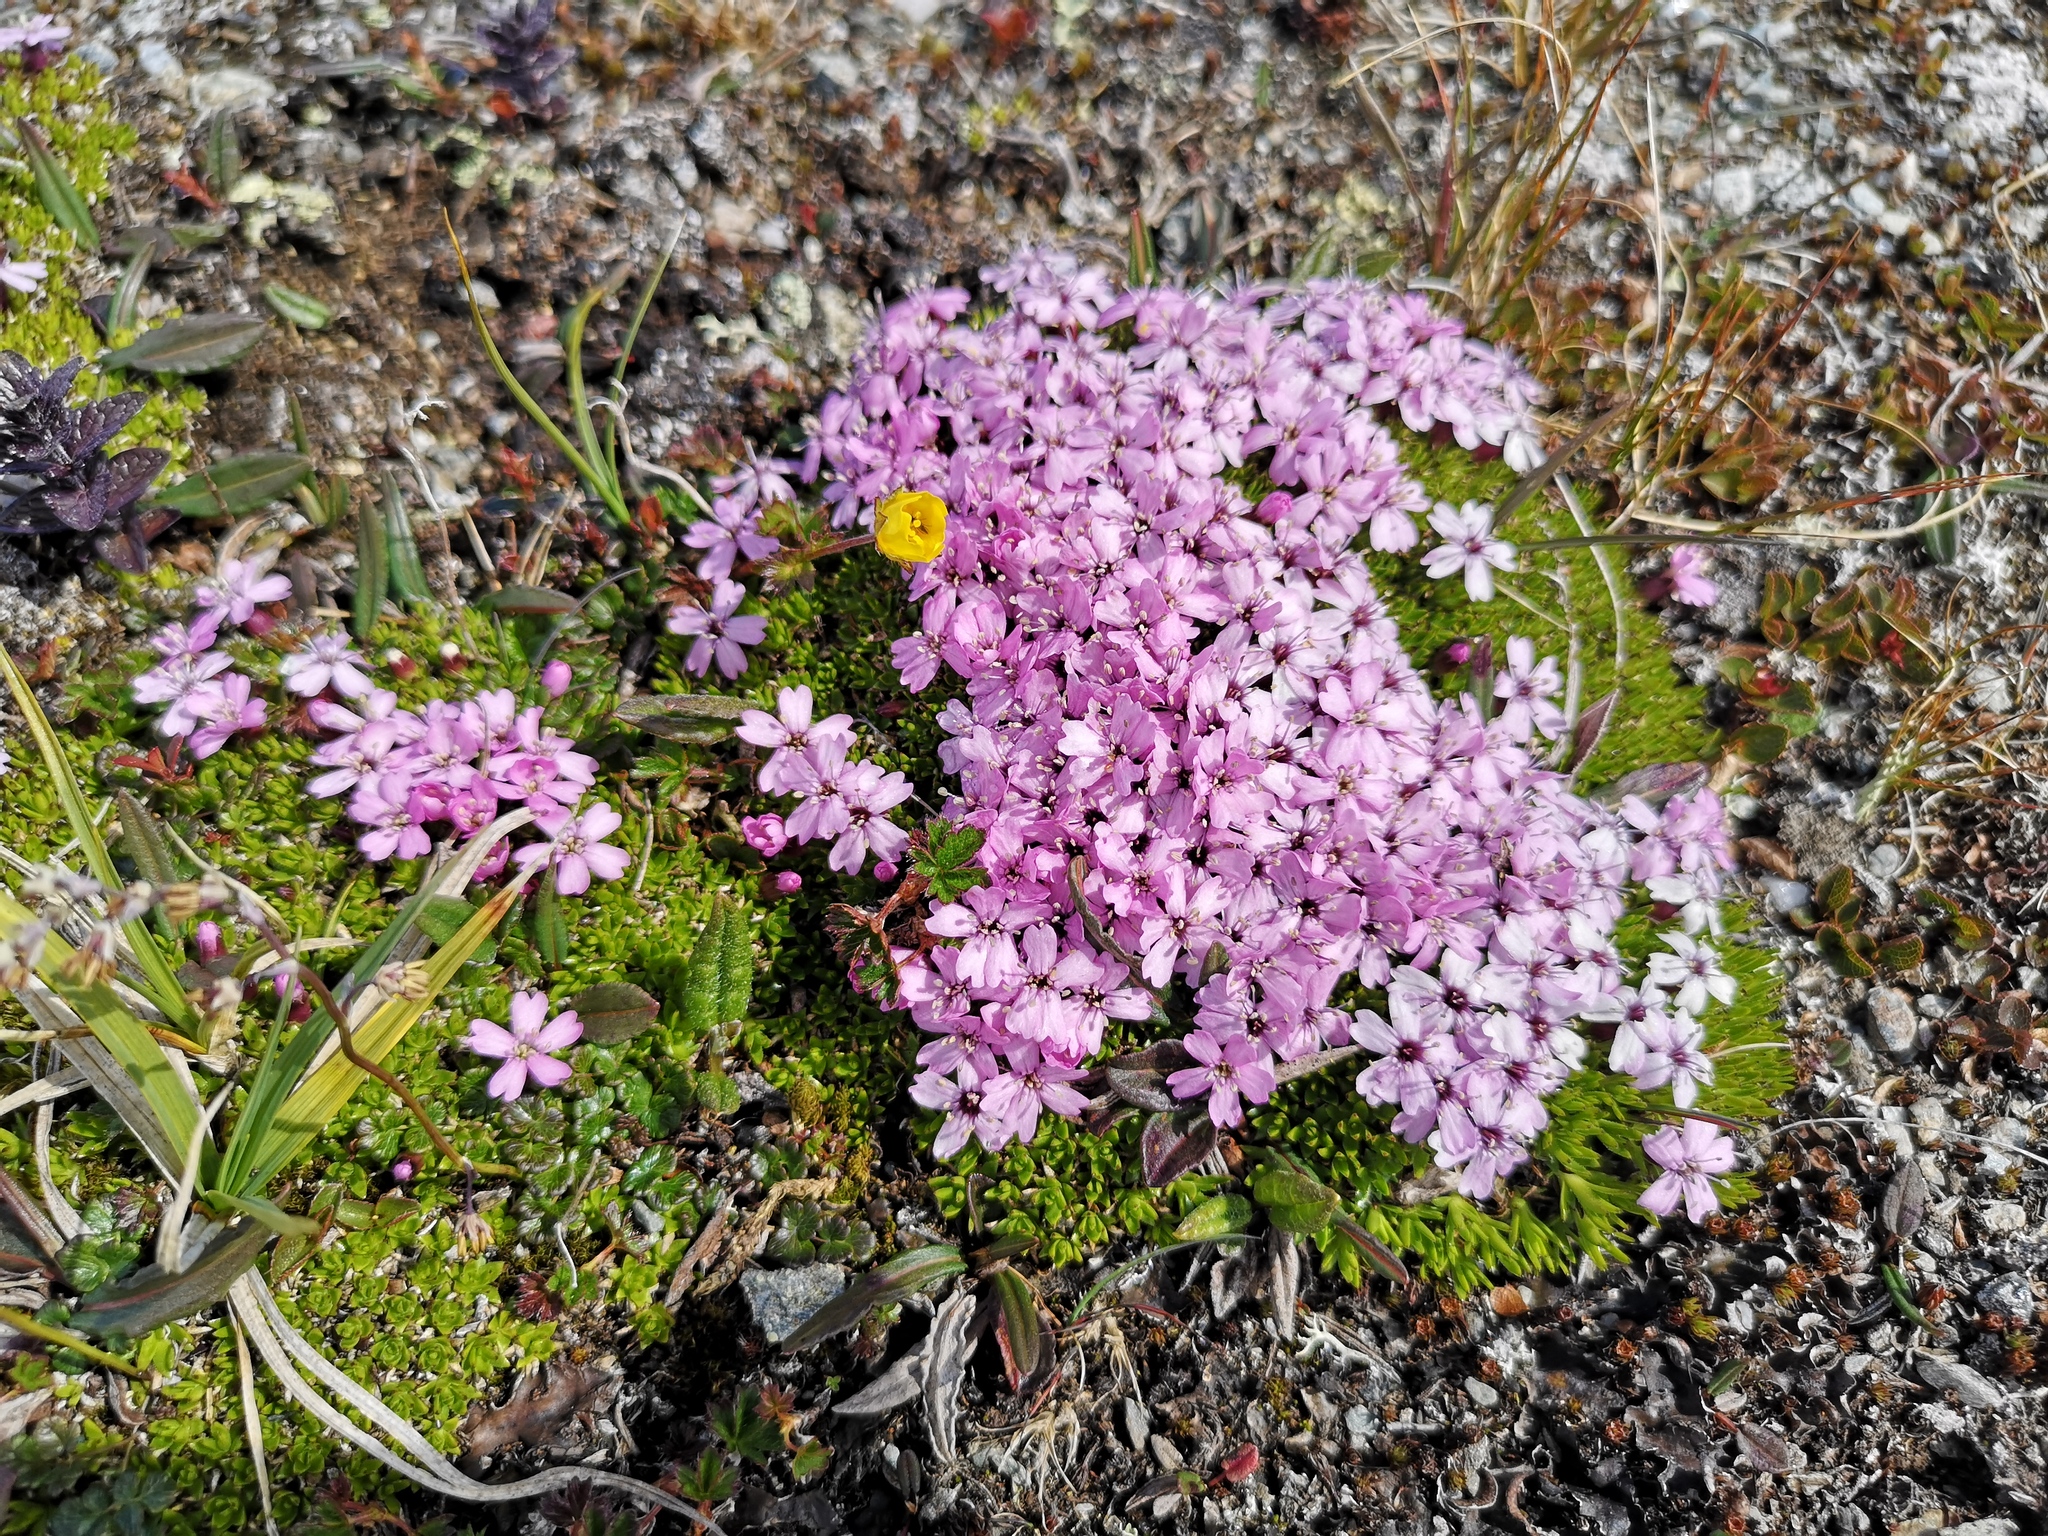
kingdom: Plantae
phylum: Tracheophyta
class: Magnoliopsida
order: Caryophyllales
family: Caryophyllaceae
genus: Silene
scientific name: Silene acaulis
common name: Moss campion
